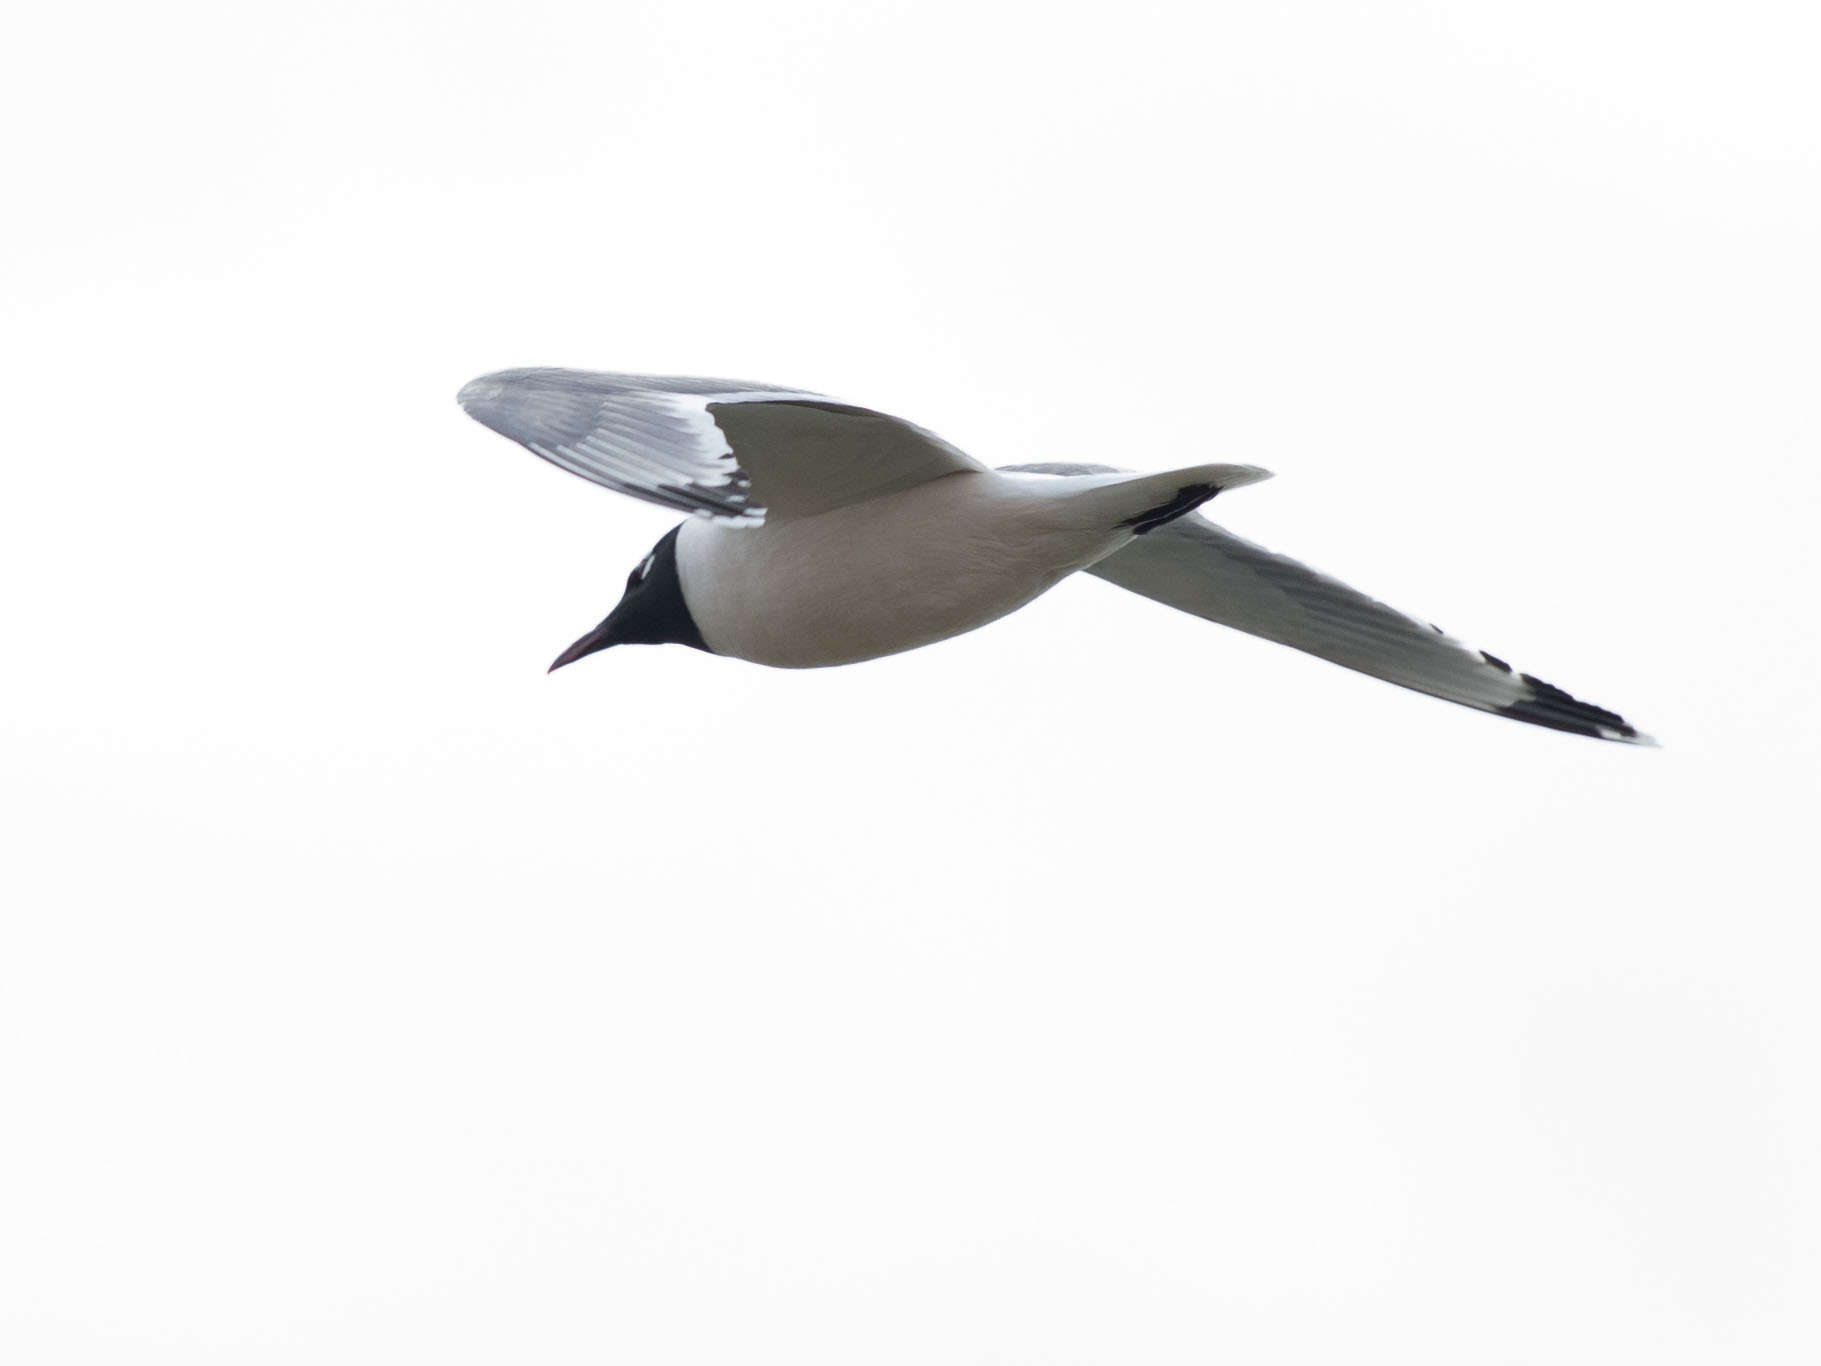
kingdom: Animalia
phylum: Chordata
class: Aves
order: Charadriiformes
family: Laridae
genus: Leucophaeus
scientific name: Leucophaeus pipixcan
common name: Franklin's gull
